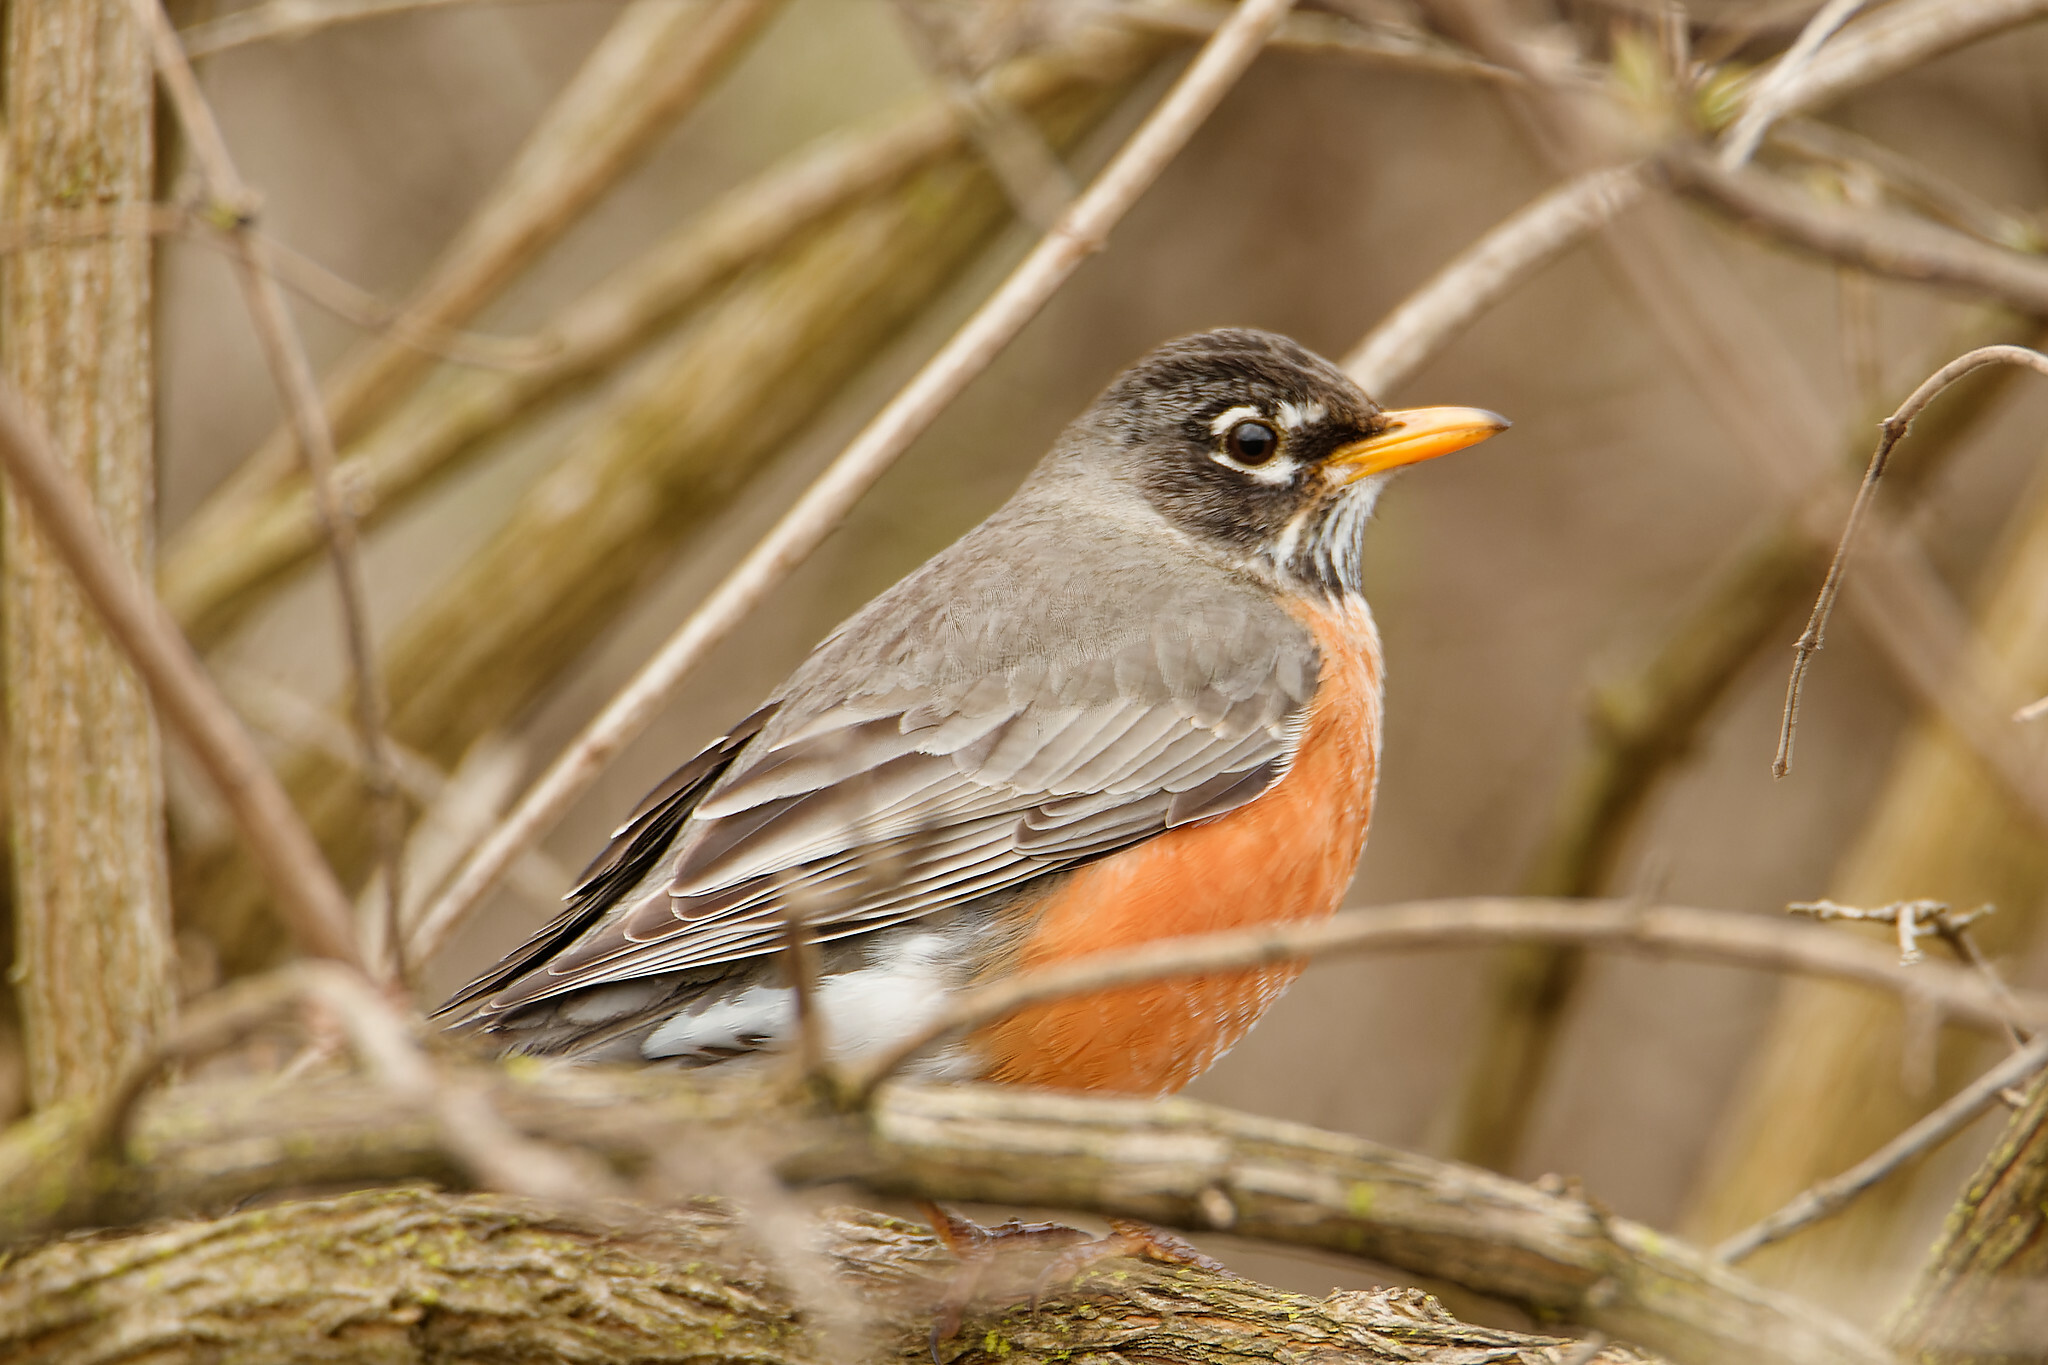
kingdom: Animalia
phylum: Chordata
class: Aves
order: Passeriformes
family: Turdidae
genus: Turdus
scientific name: Turdus migratorius
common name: American robin
